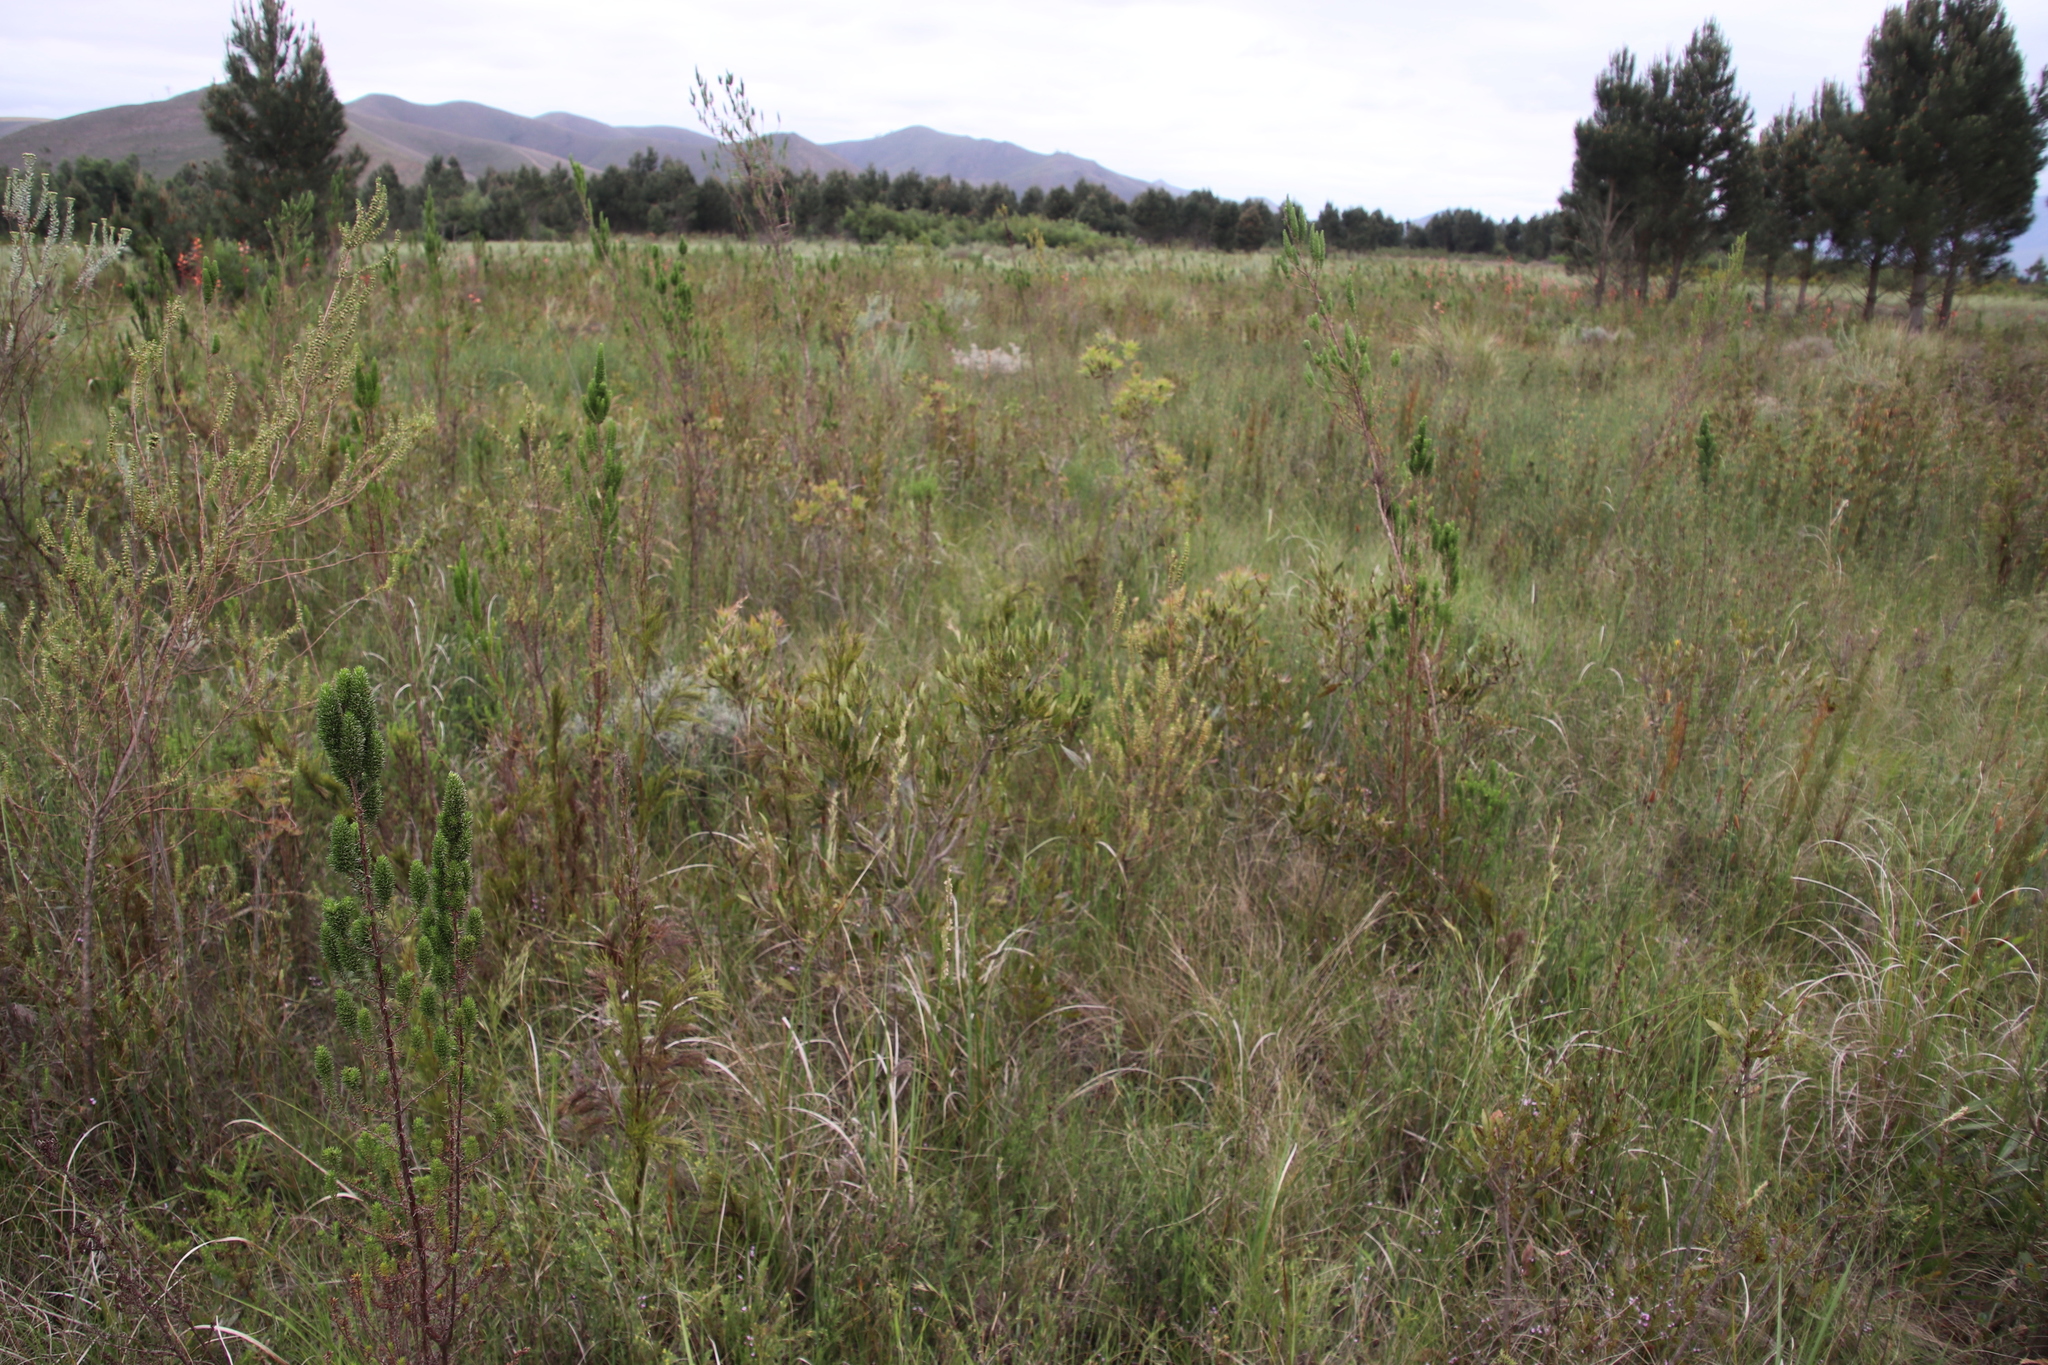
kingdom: Plantae
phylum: Tracheophyta
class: Magnoliopsida
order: Fagales
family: Myricaceae
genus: Morella
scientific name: Morella serrata
